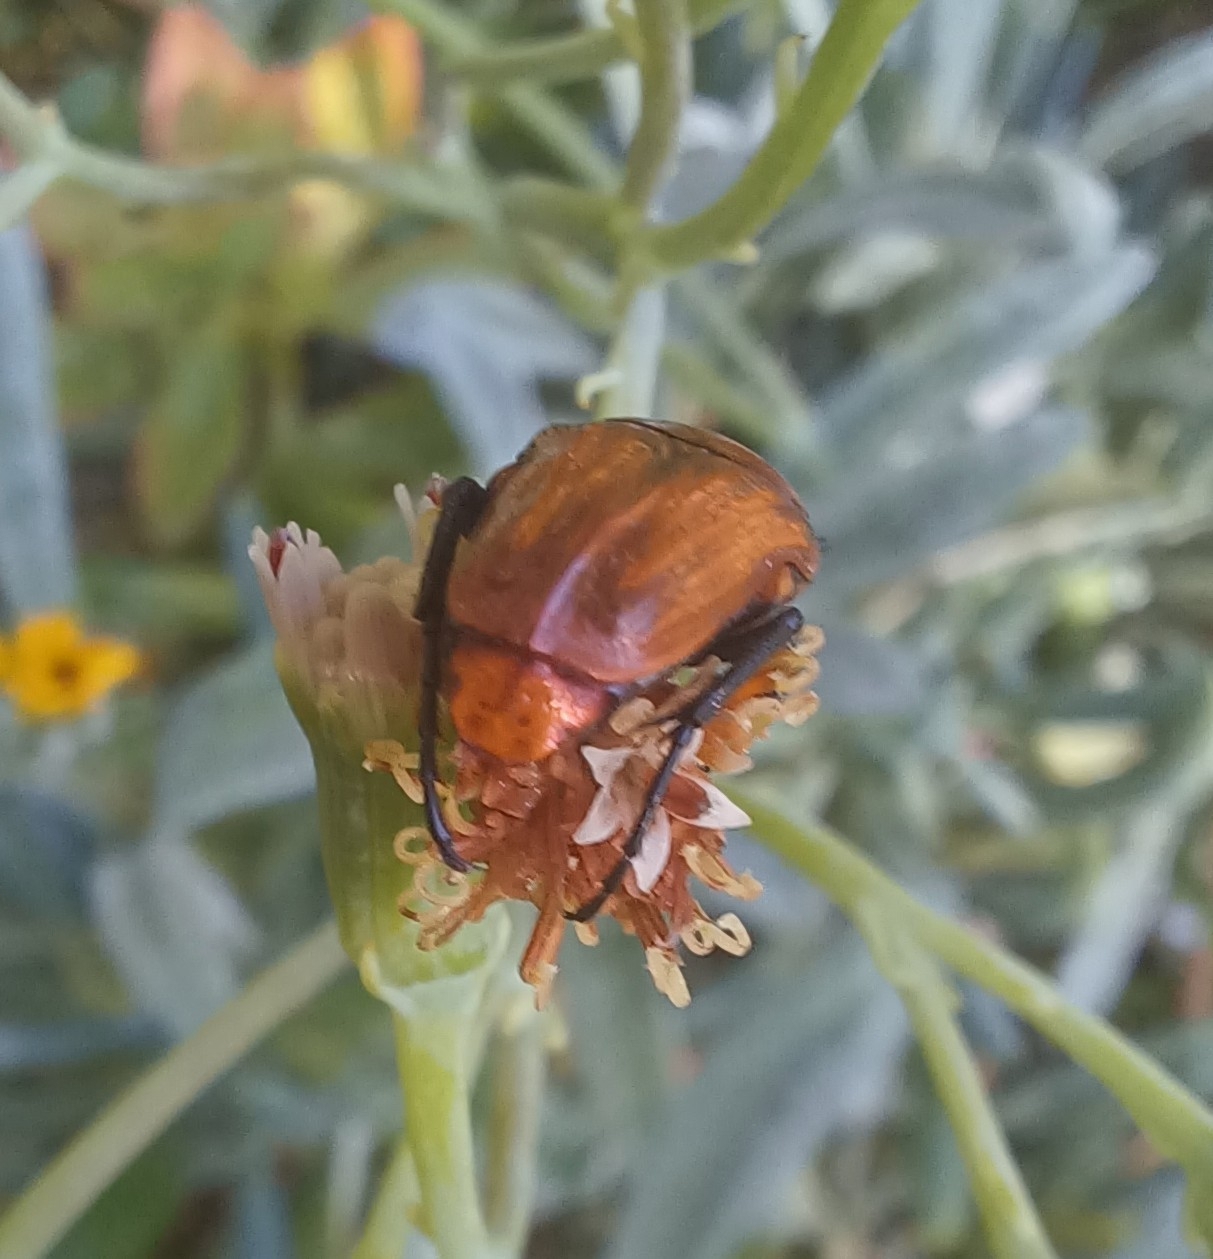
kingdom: Animalia
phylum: Arthropoda
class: Insecta
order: Coleoptera
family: Scarabaeidae
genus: Leucocelis
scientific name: Leucocelis rubra
